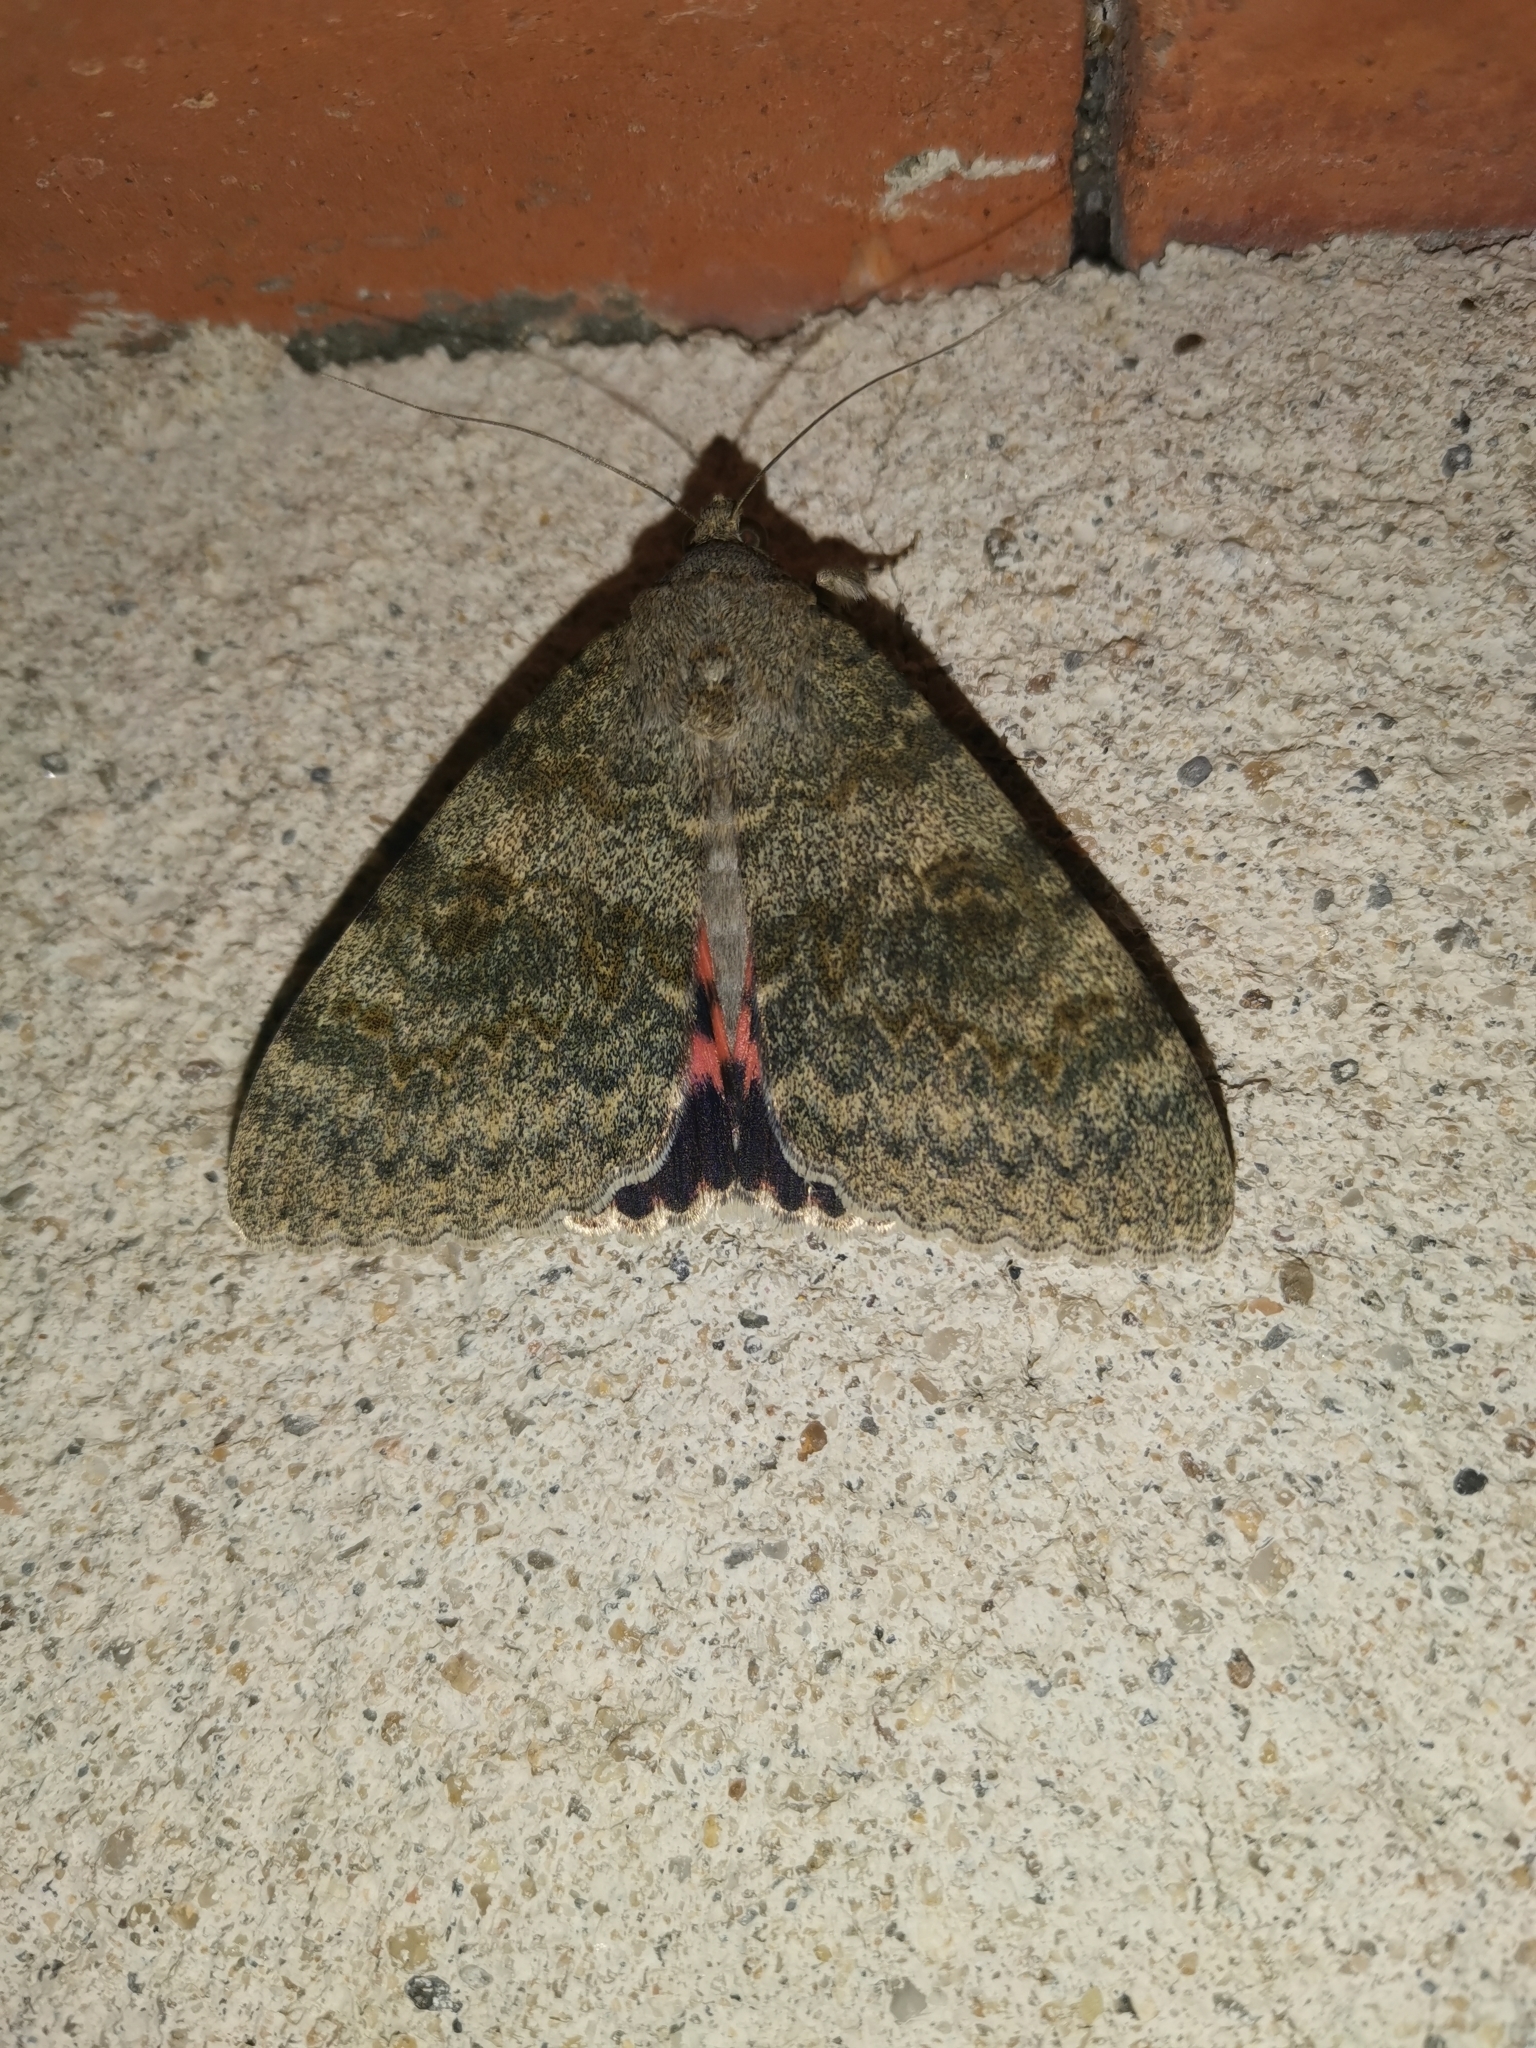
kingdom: Animalia
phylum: Arthropoda
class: Insecta
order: Lepidoptera
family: Erebidae
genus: Catocala
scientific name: Catocala elocata
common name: French red underwing
